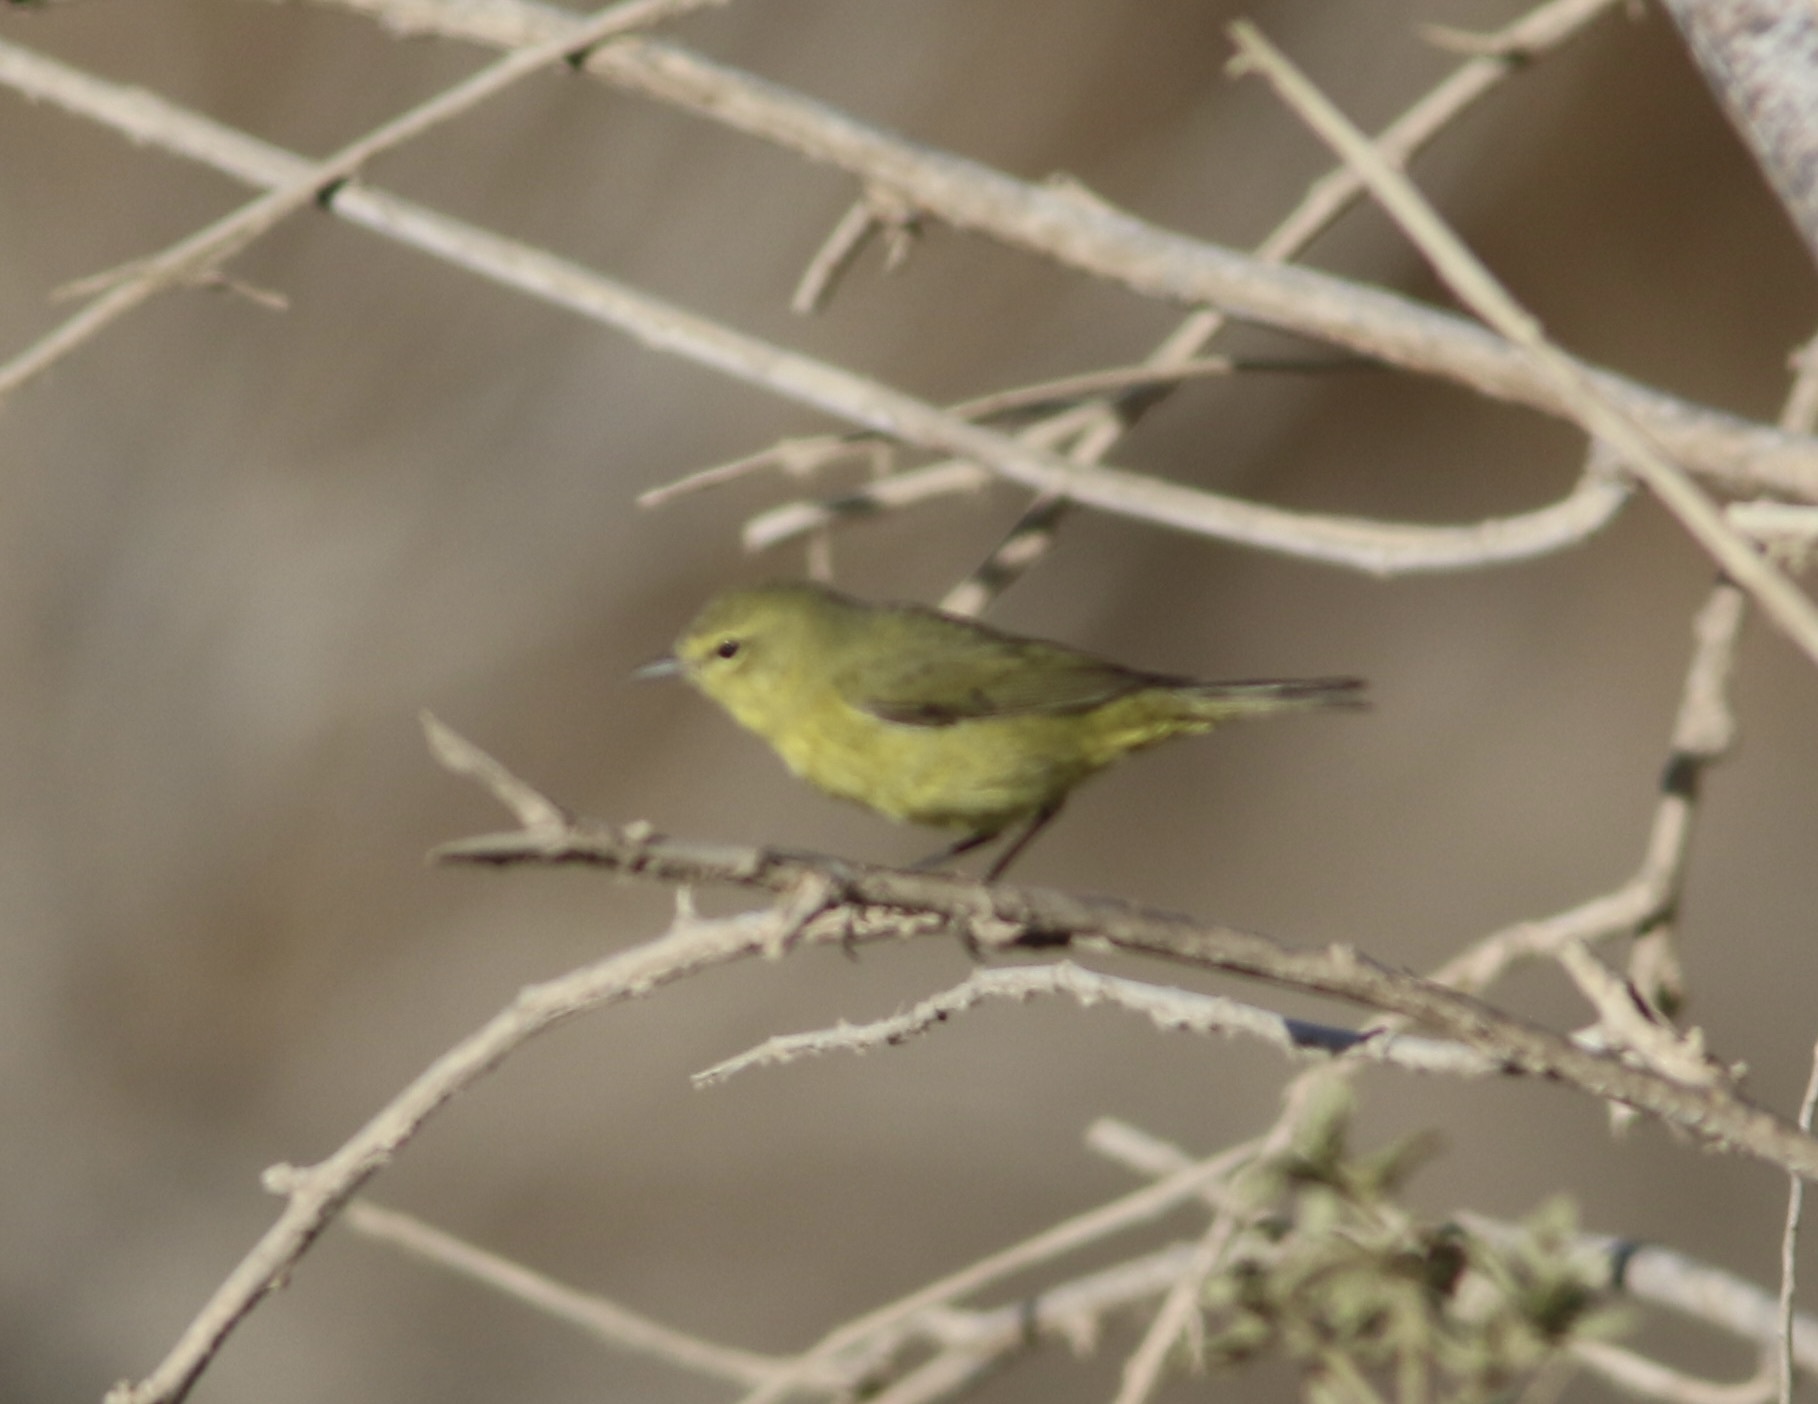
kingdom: Animalia
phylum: Chordata
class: Aves
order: Passeriformes
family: Parulidae
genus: Leiothlypis
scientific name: Leiothlypis celata
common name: Orange-crowned warbler
